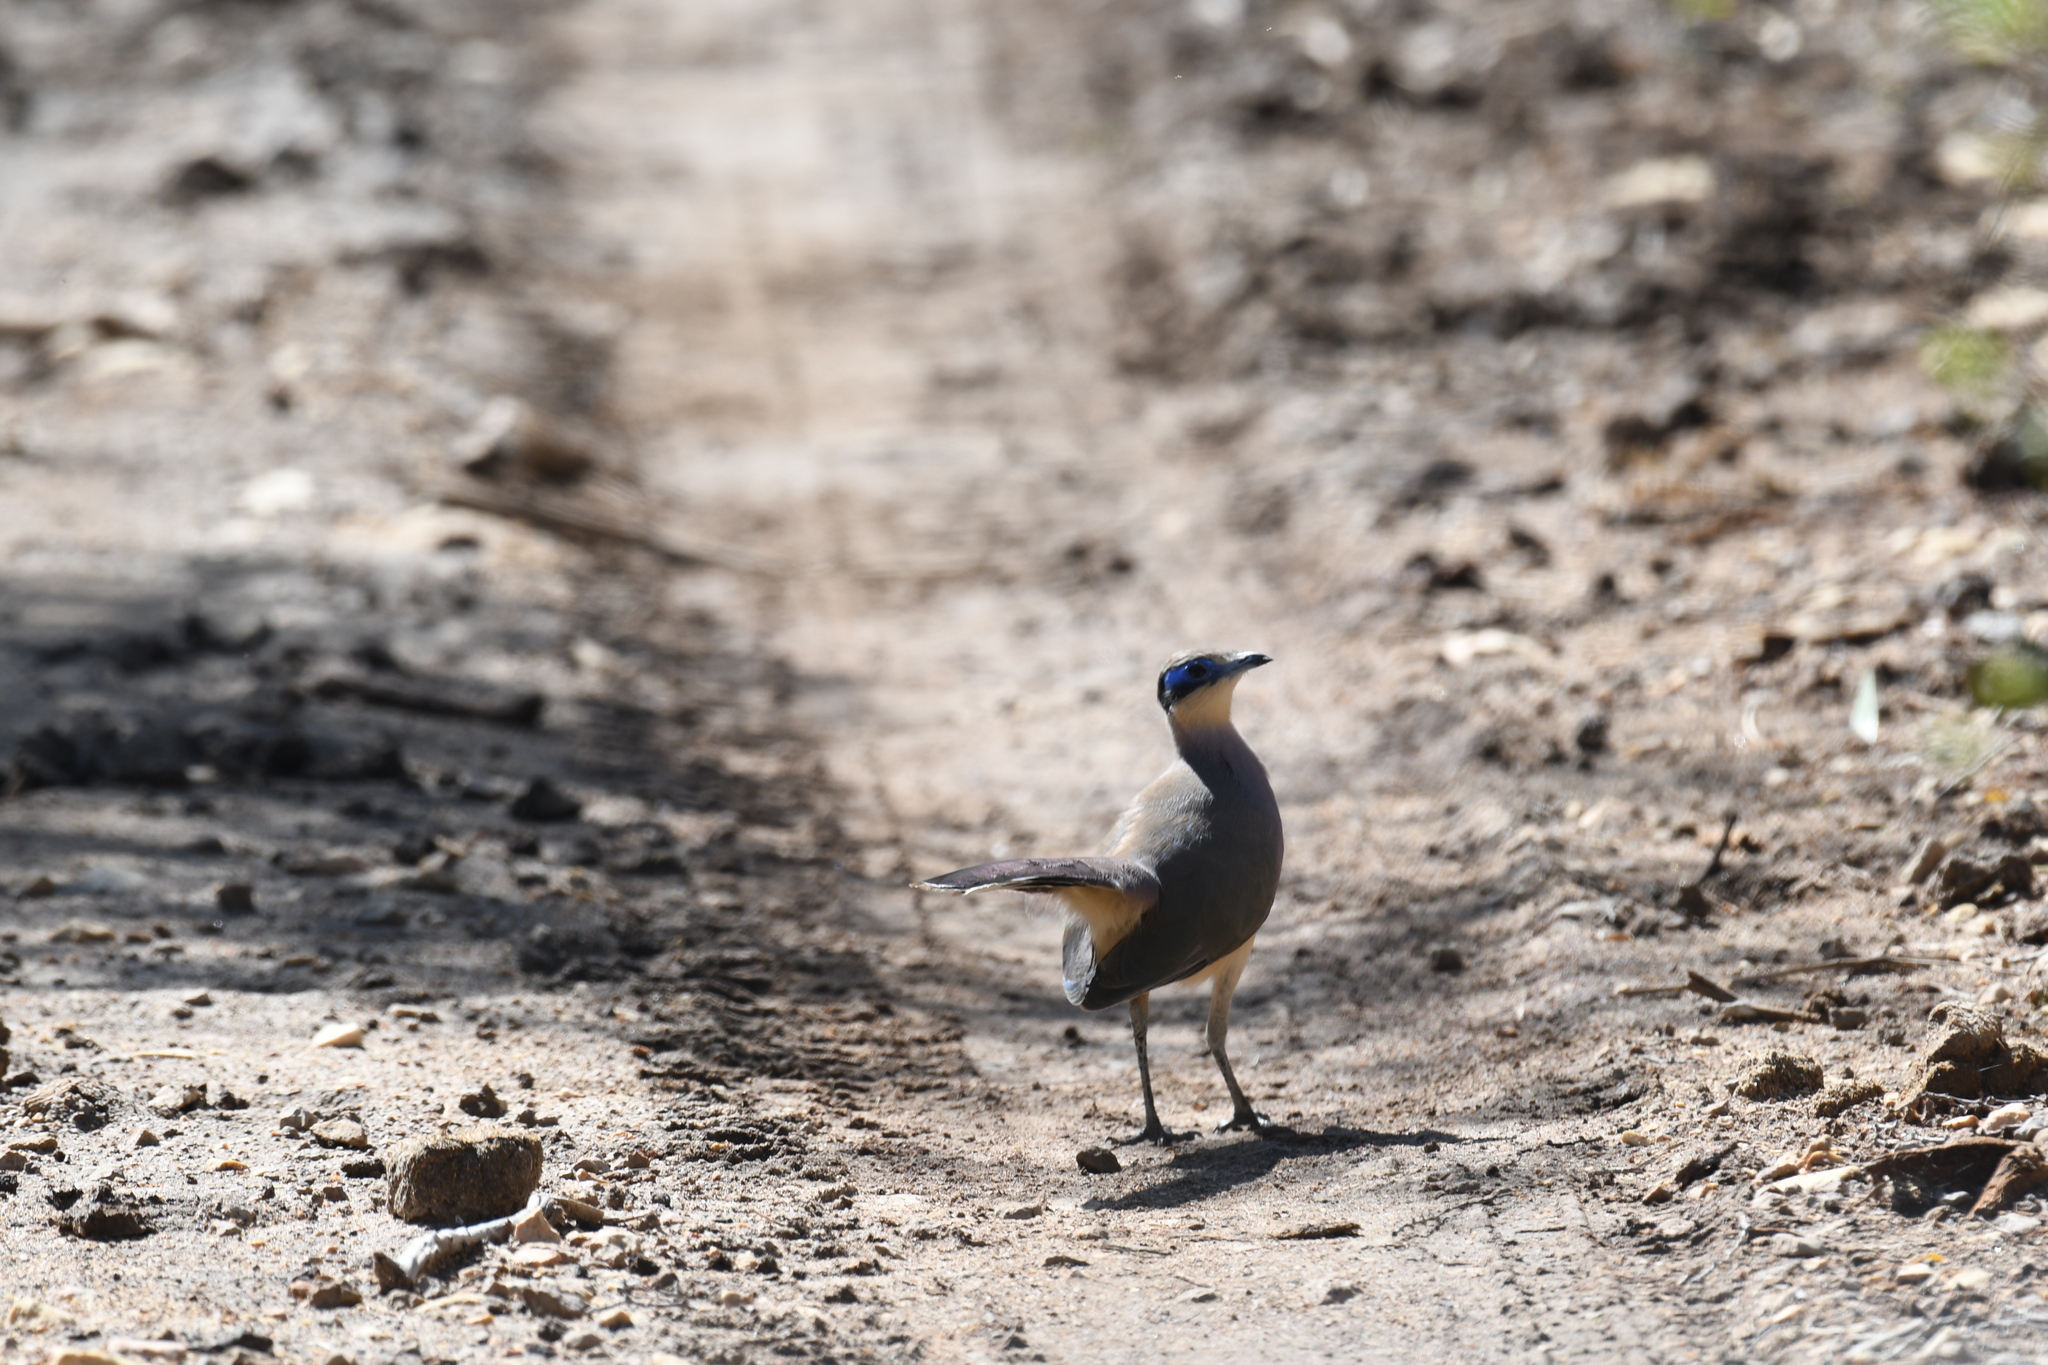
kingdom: Animalia
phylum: Chordata
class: Aves
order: Cuculiformes
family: Cuculidae
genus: Coua
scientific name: Coua ruficeps
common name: Red-capped coua
